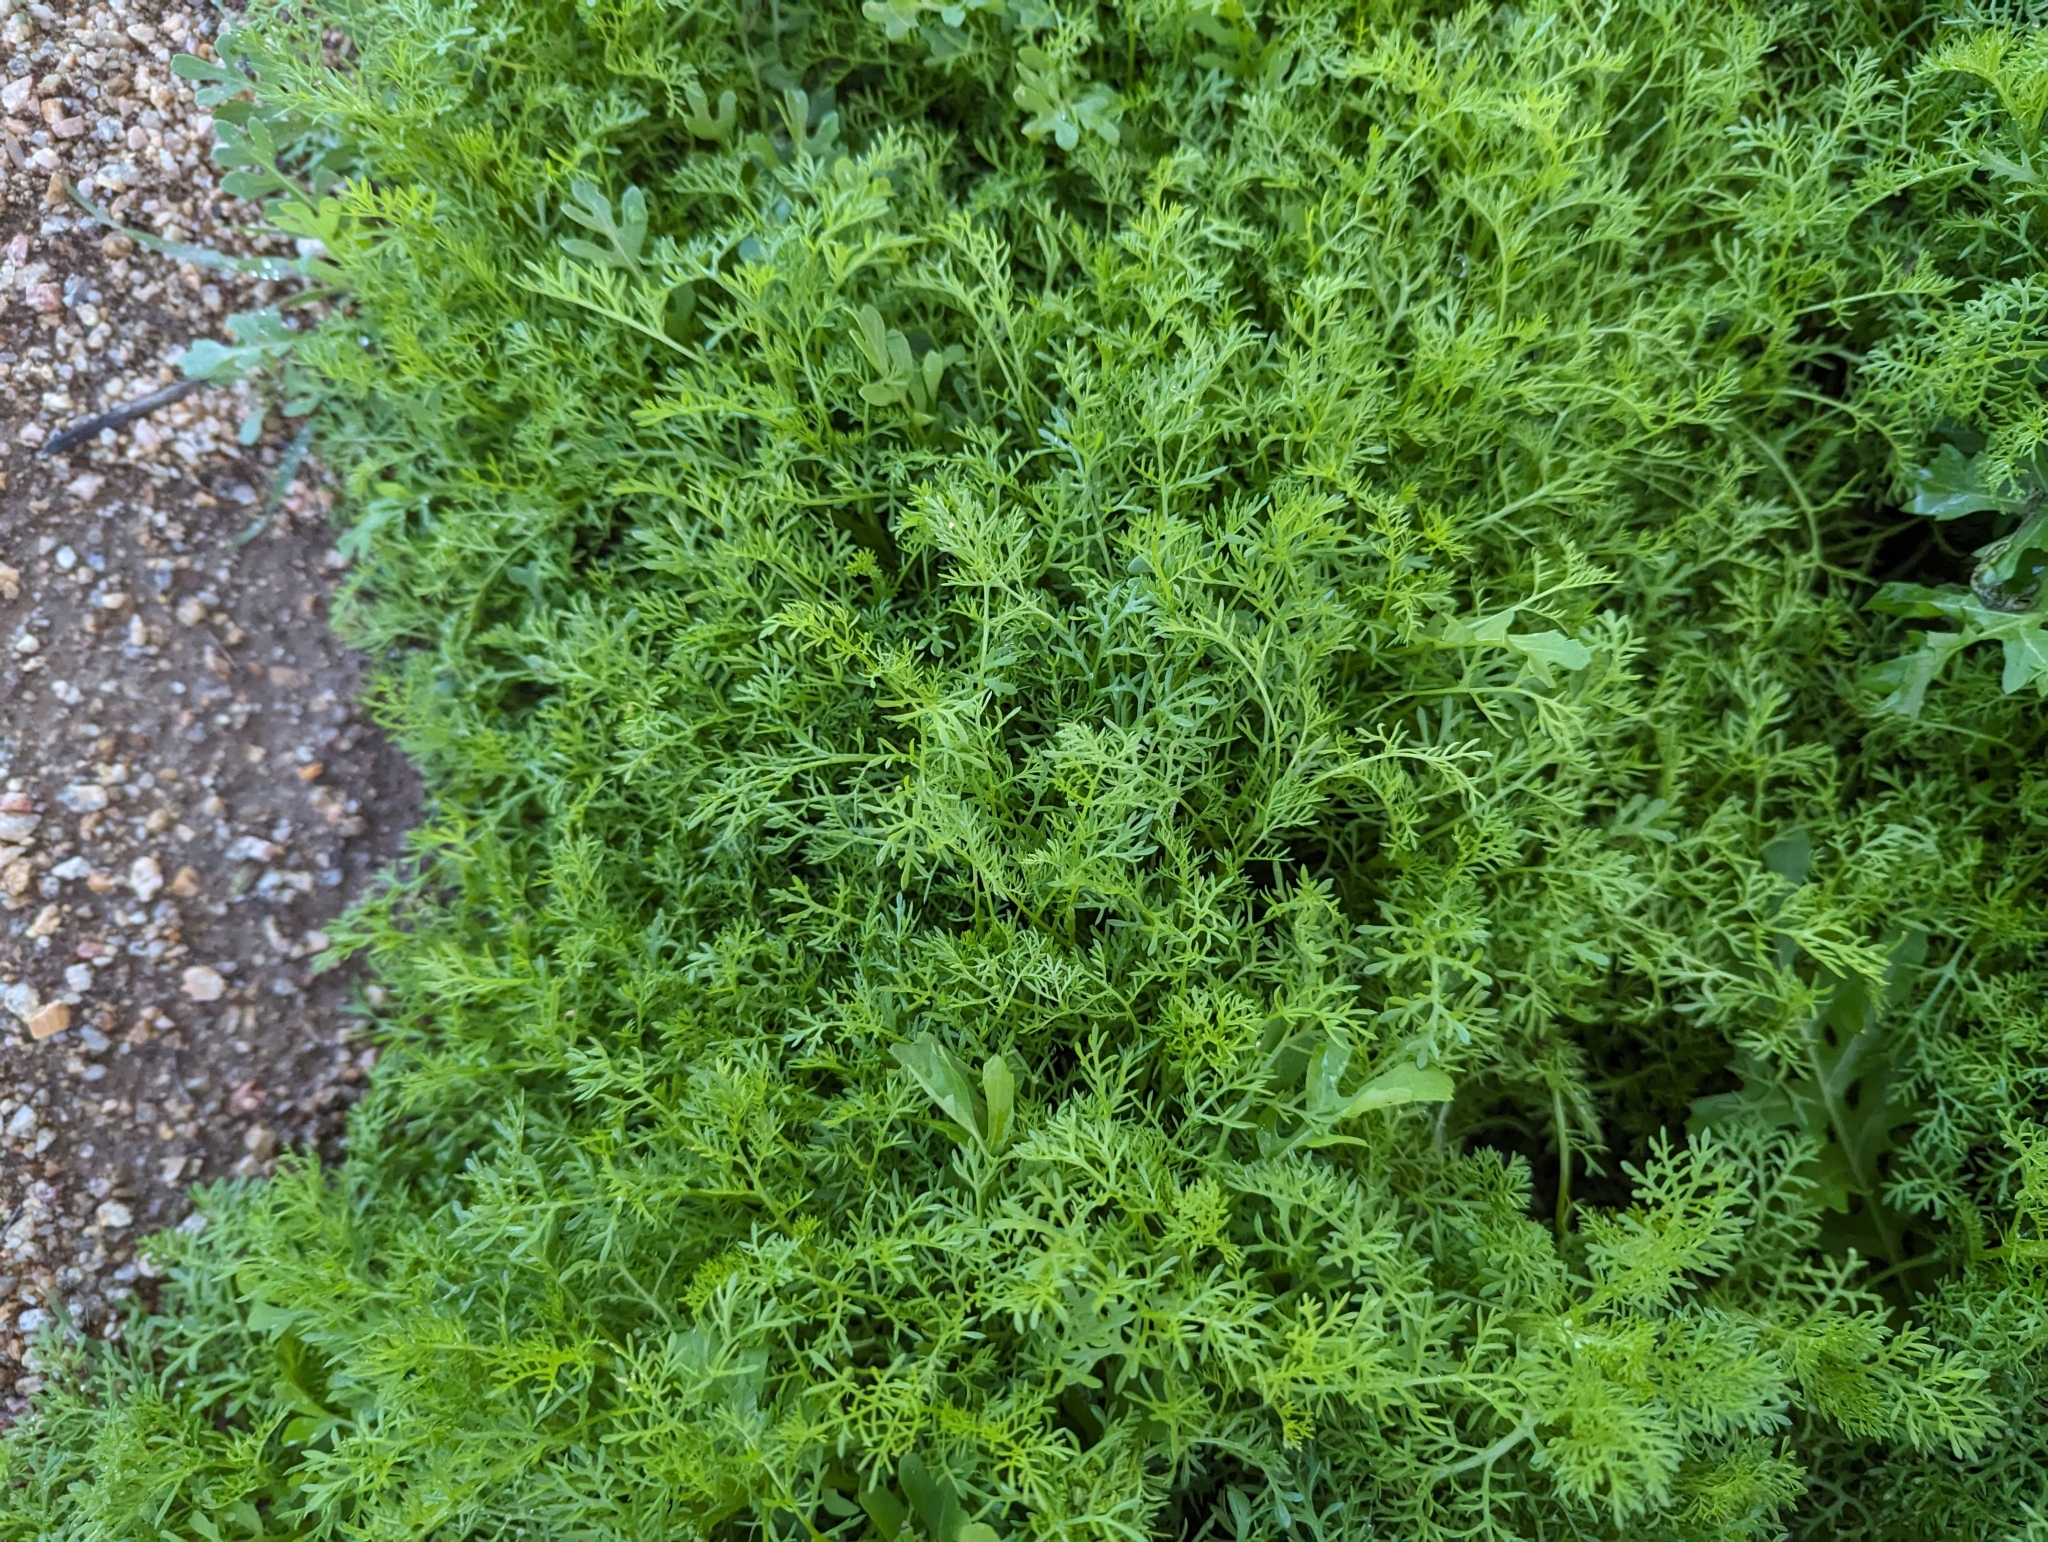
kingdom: Plantae
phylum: Tracheophyta
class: Magnoliopsida
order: Asterales
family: Asteraceae
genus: Oncosiphon
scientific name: Oncosiphon pilulifer
